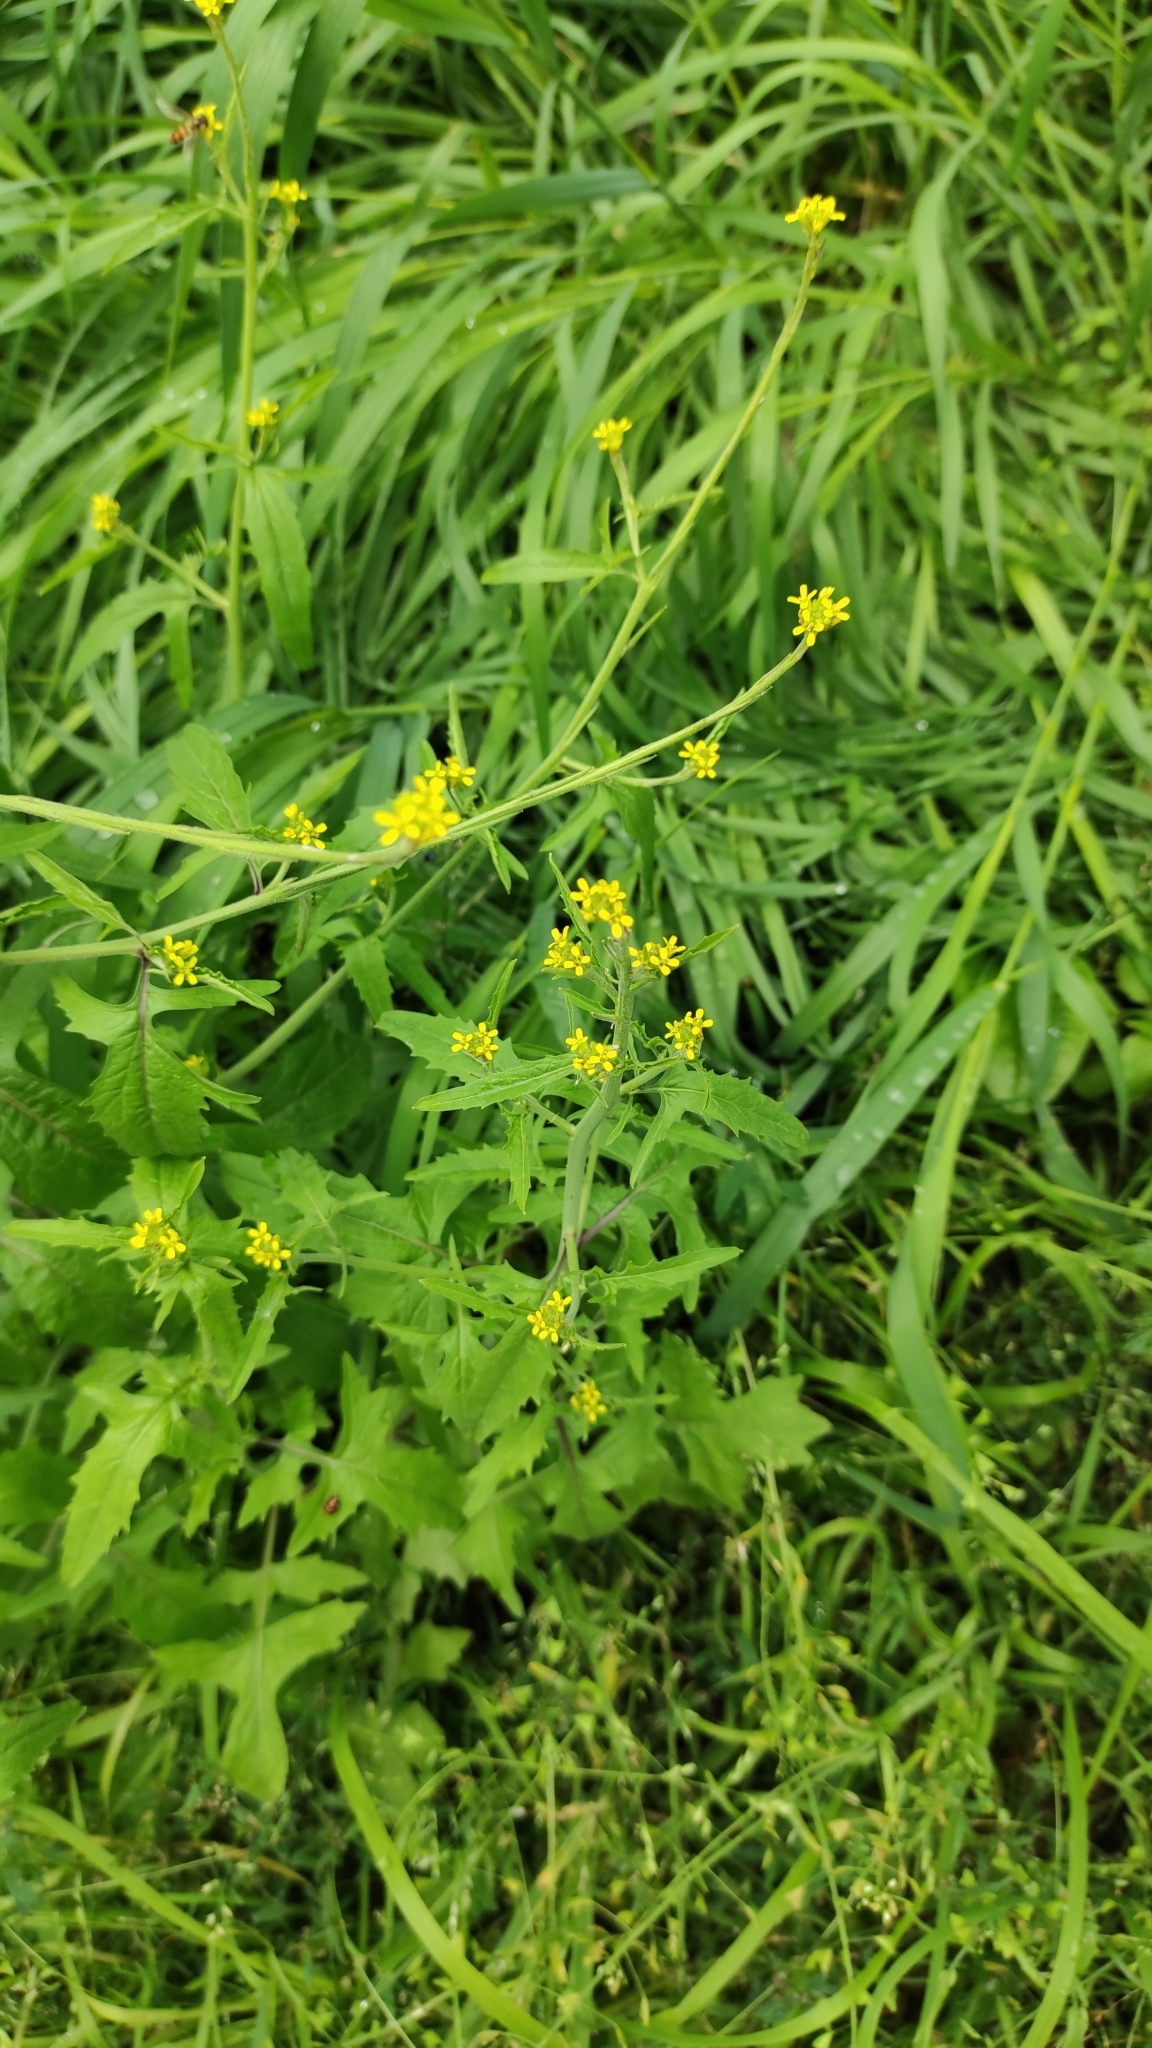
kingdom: Plantae
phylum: Tracheophyta
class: Magnoliopsida
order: Brassicales
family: Brassicaceae
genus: Sisymbrium
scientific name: Sisymbrium officinale
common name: Hedge mustard
